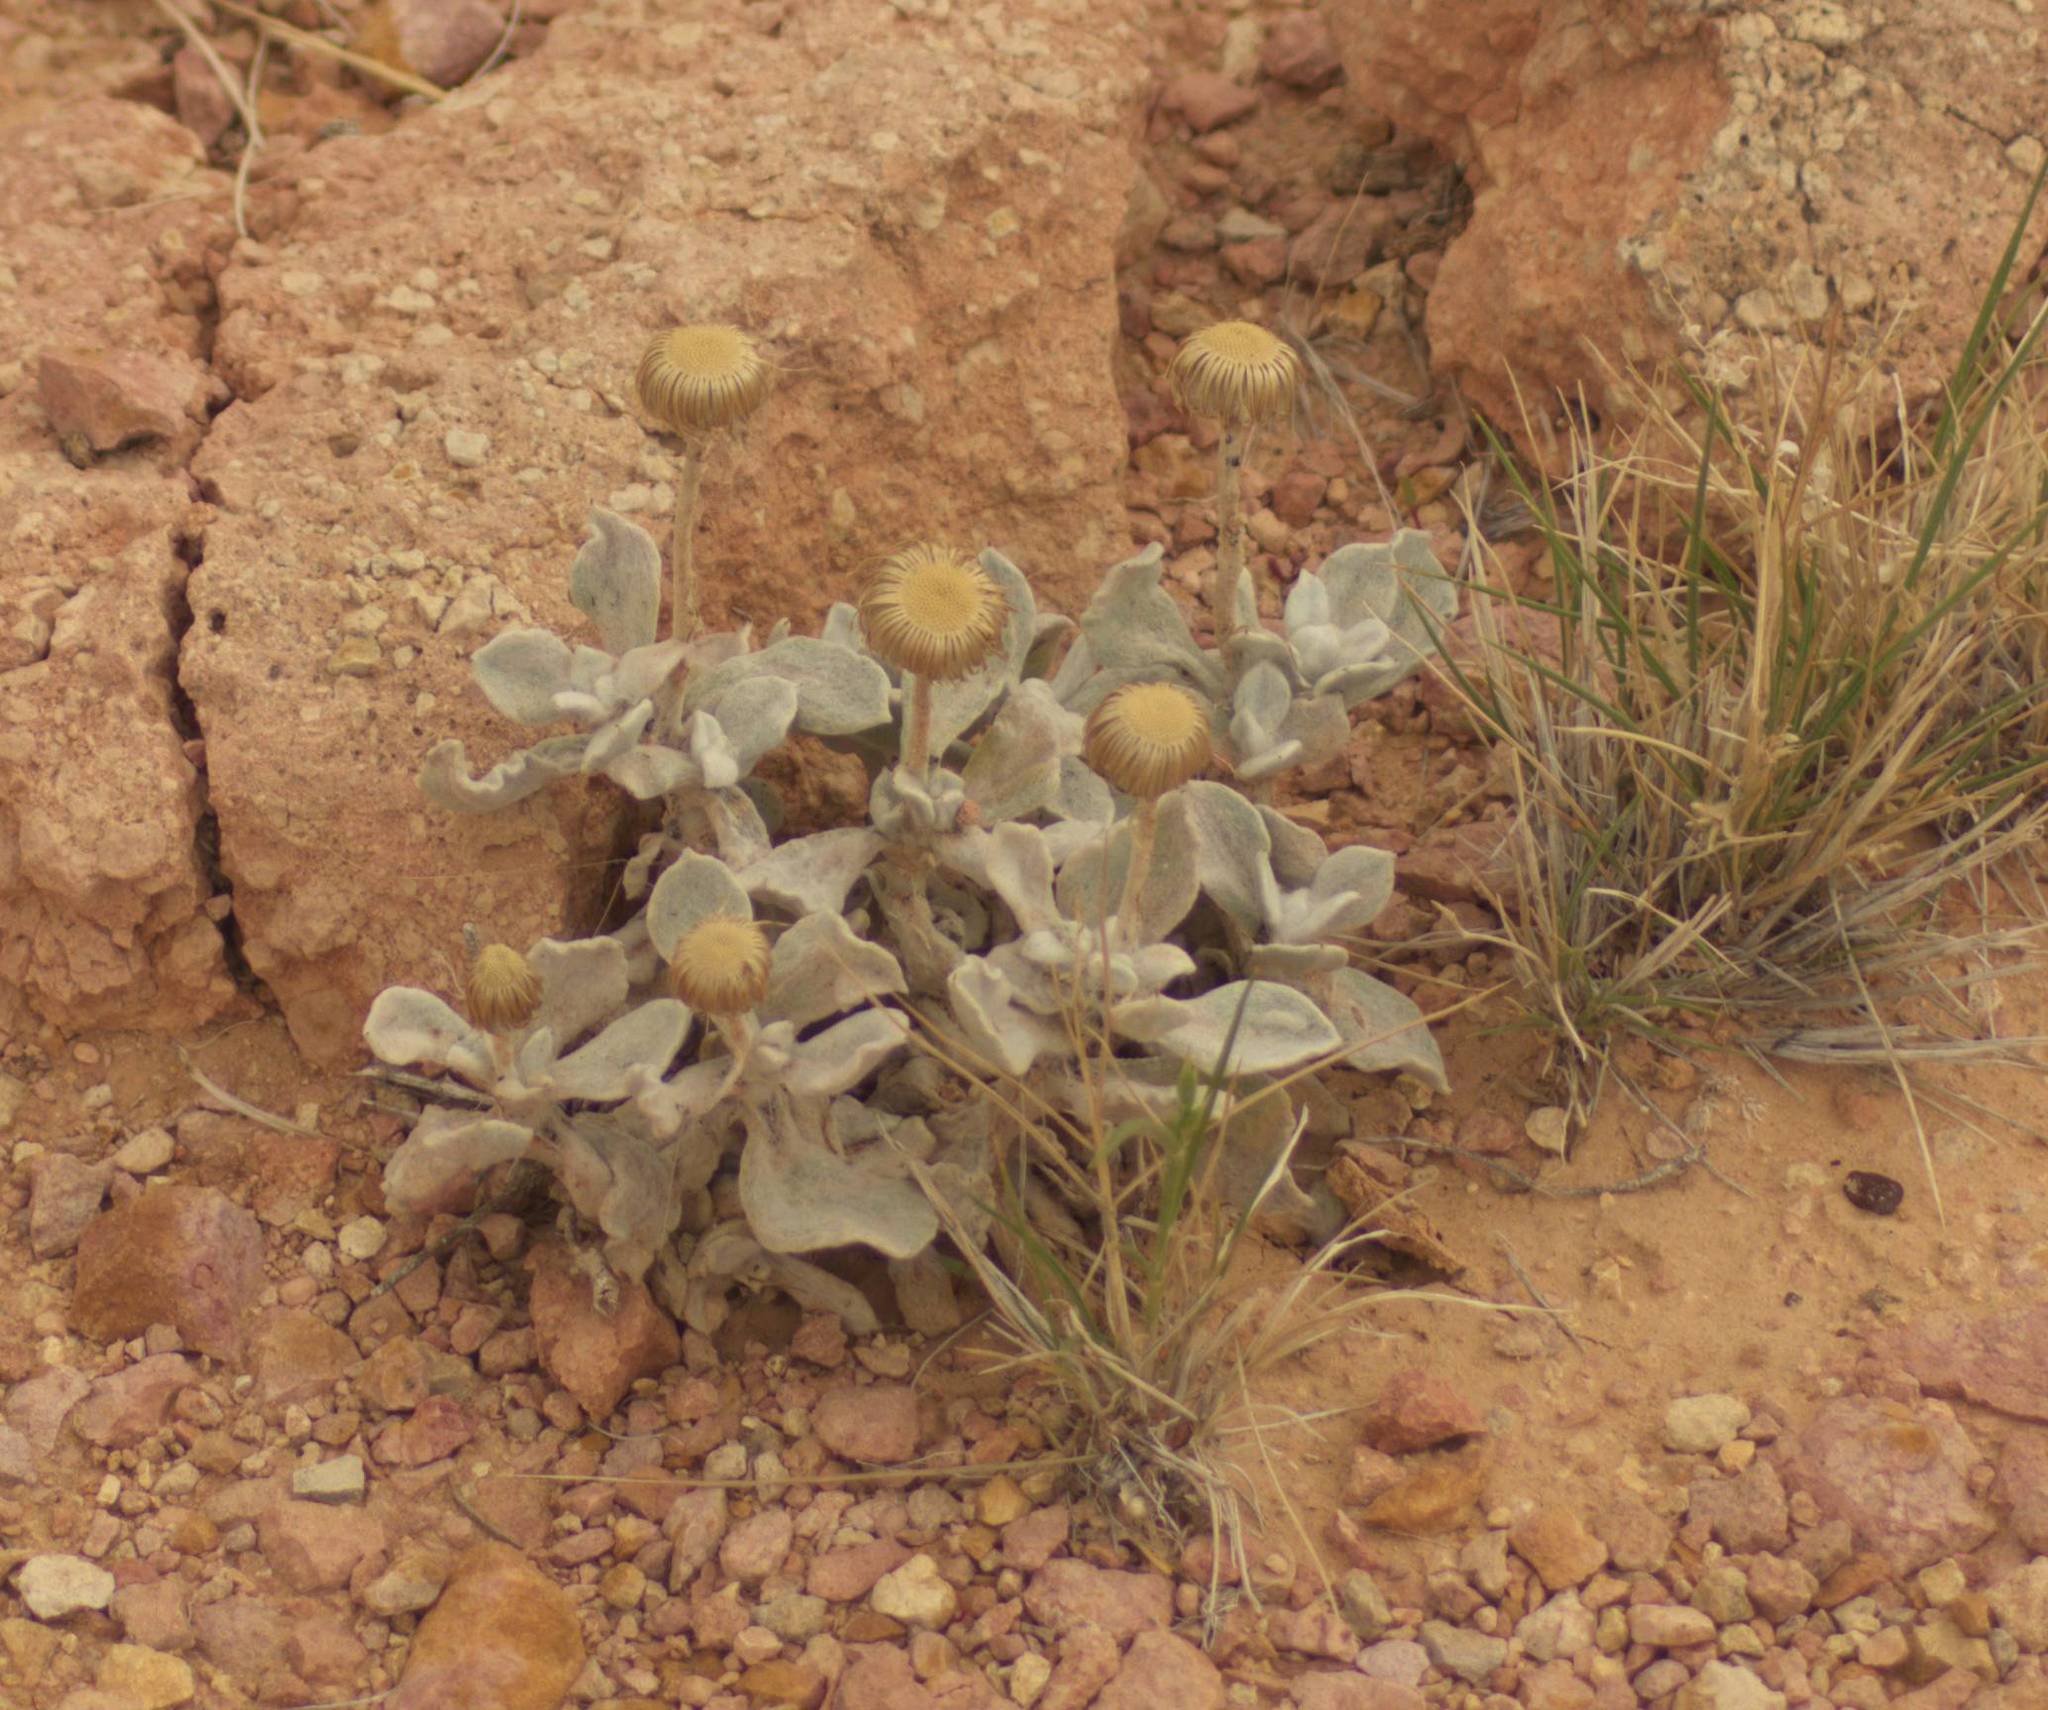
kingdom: Plantae
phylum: Tracheophyta
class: Magnoliopsida
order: Asterales
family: Asteraceae
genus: Anemocarpa
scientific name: Anemocarpa podolepidium
